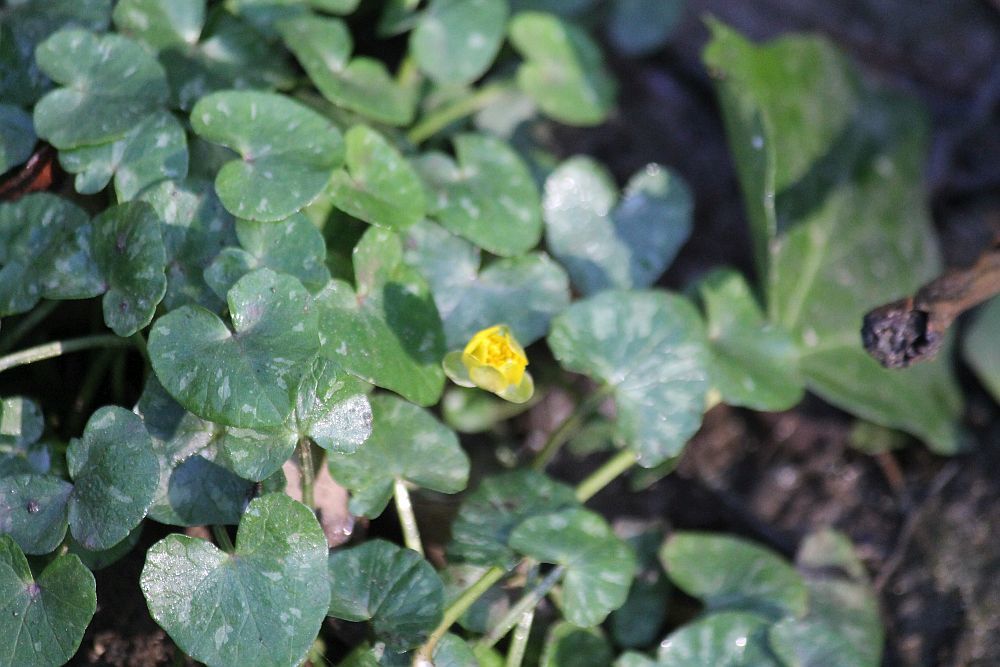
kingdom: Plantae
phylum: Tracheophyta
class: Magnoliopsida
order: Ranunculales
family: Ranunculaceae
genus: Ficaria
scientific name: Ficaria verna
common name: Lesser celandine
